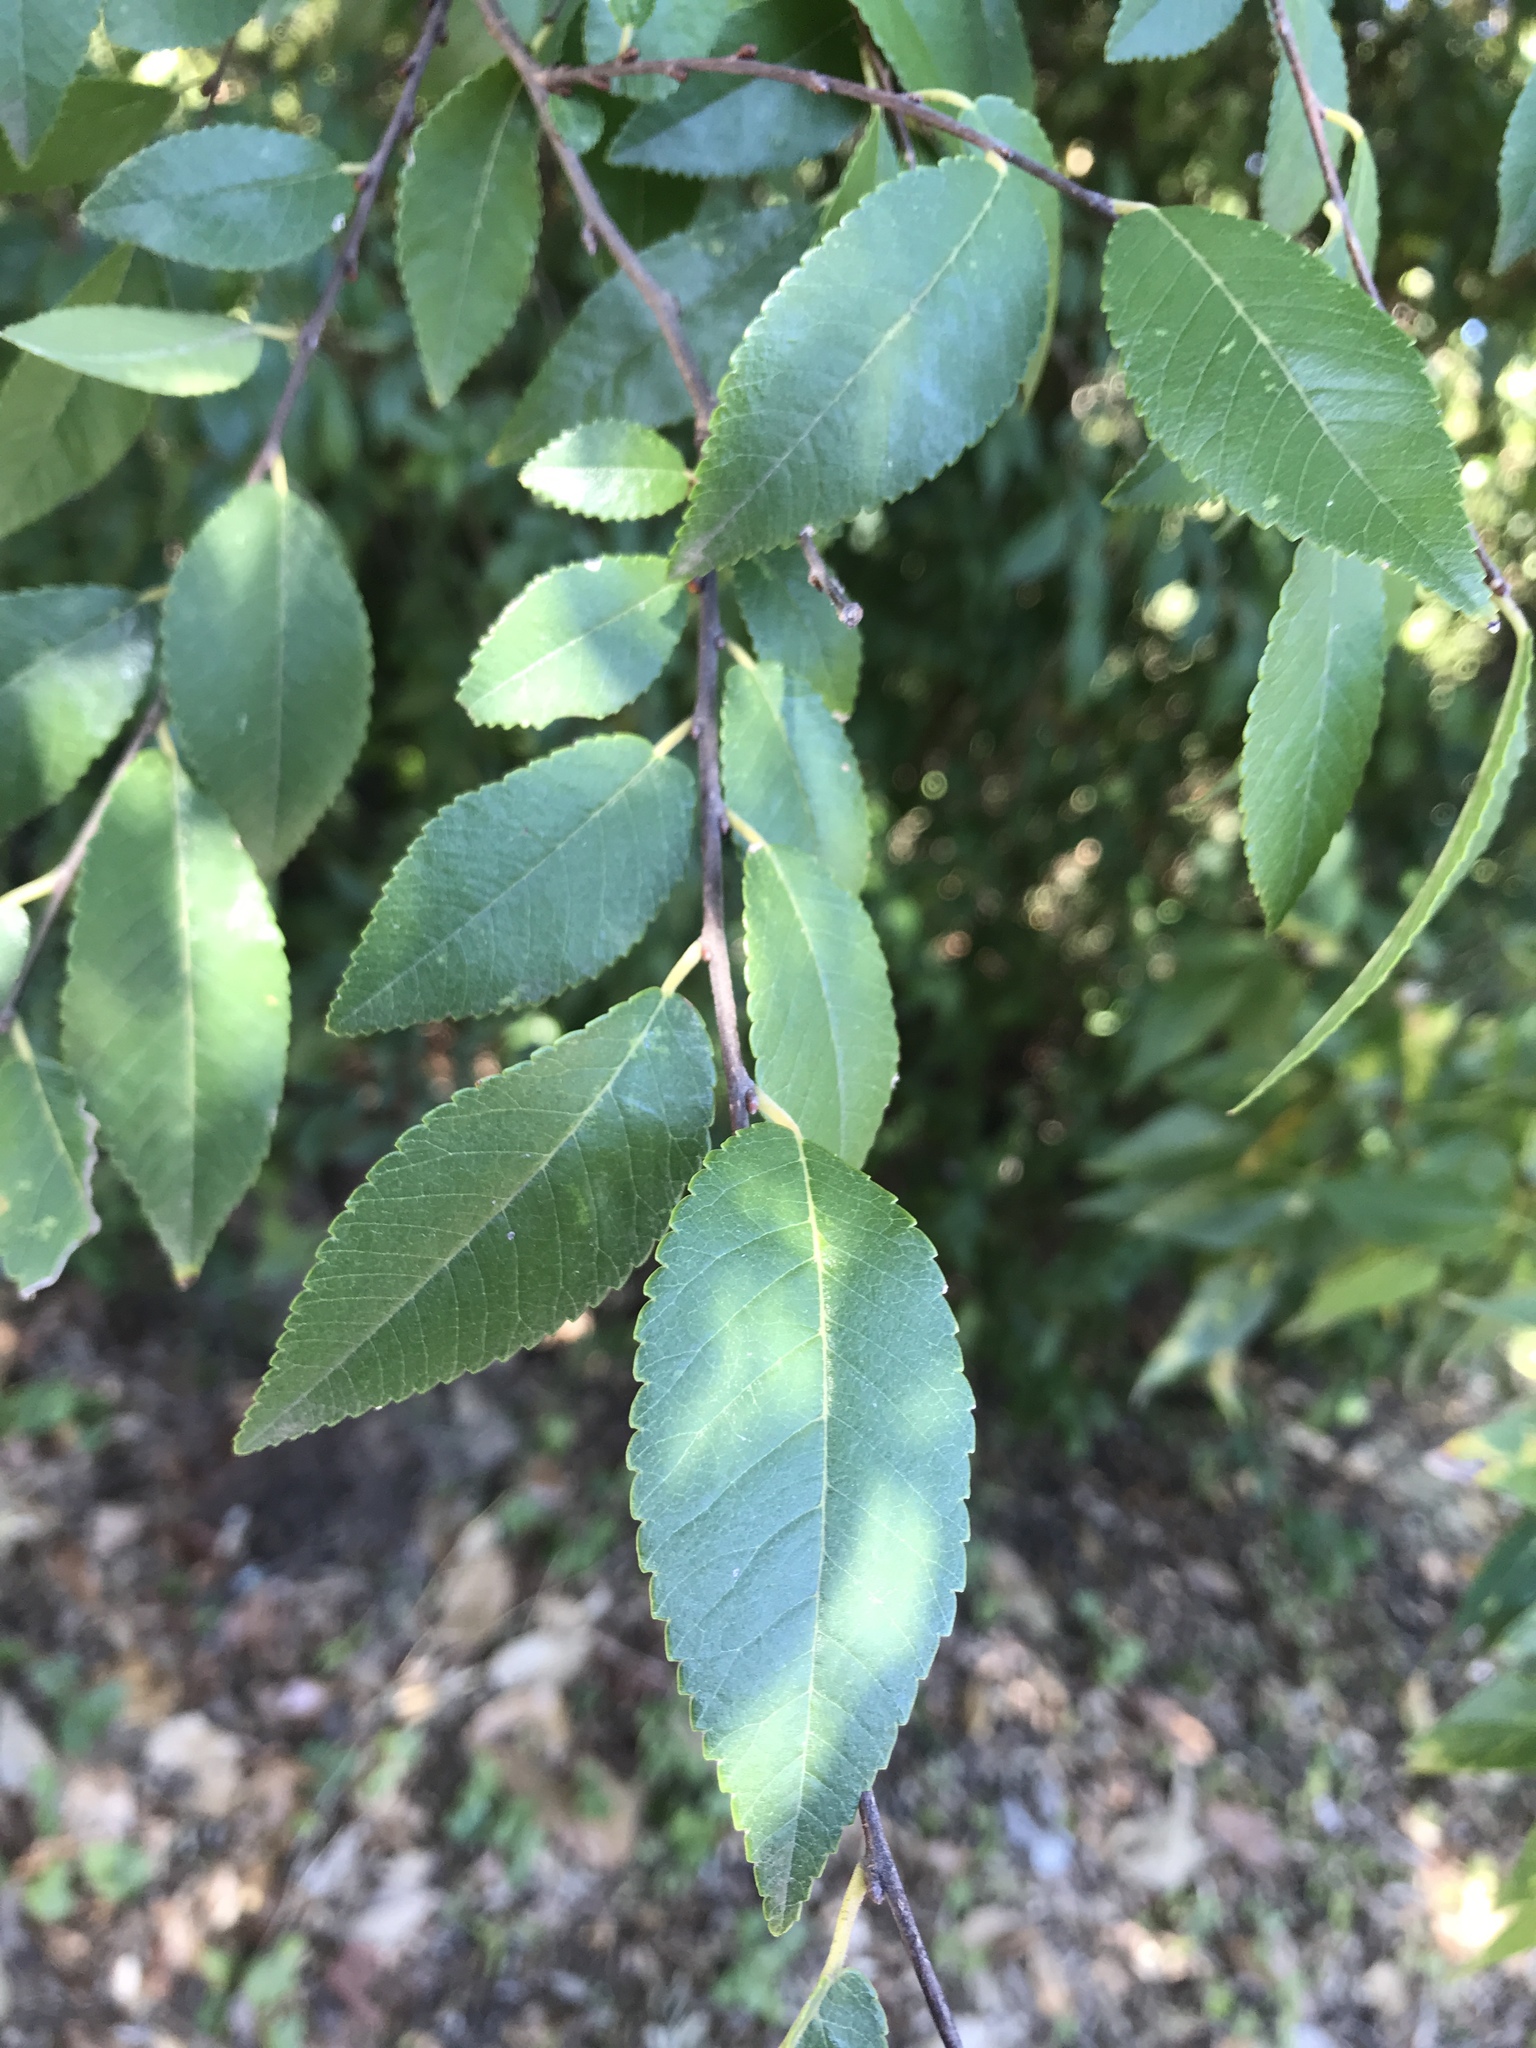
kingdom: Plantae
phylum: Tracheophyta
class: Magnoliopsida
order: Rosales
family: Ulmaceae
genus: Ulmus
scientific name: Ulmus parvifolia
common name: Chinese elm
